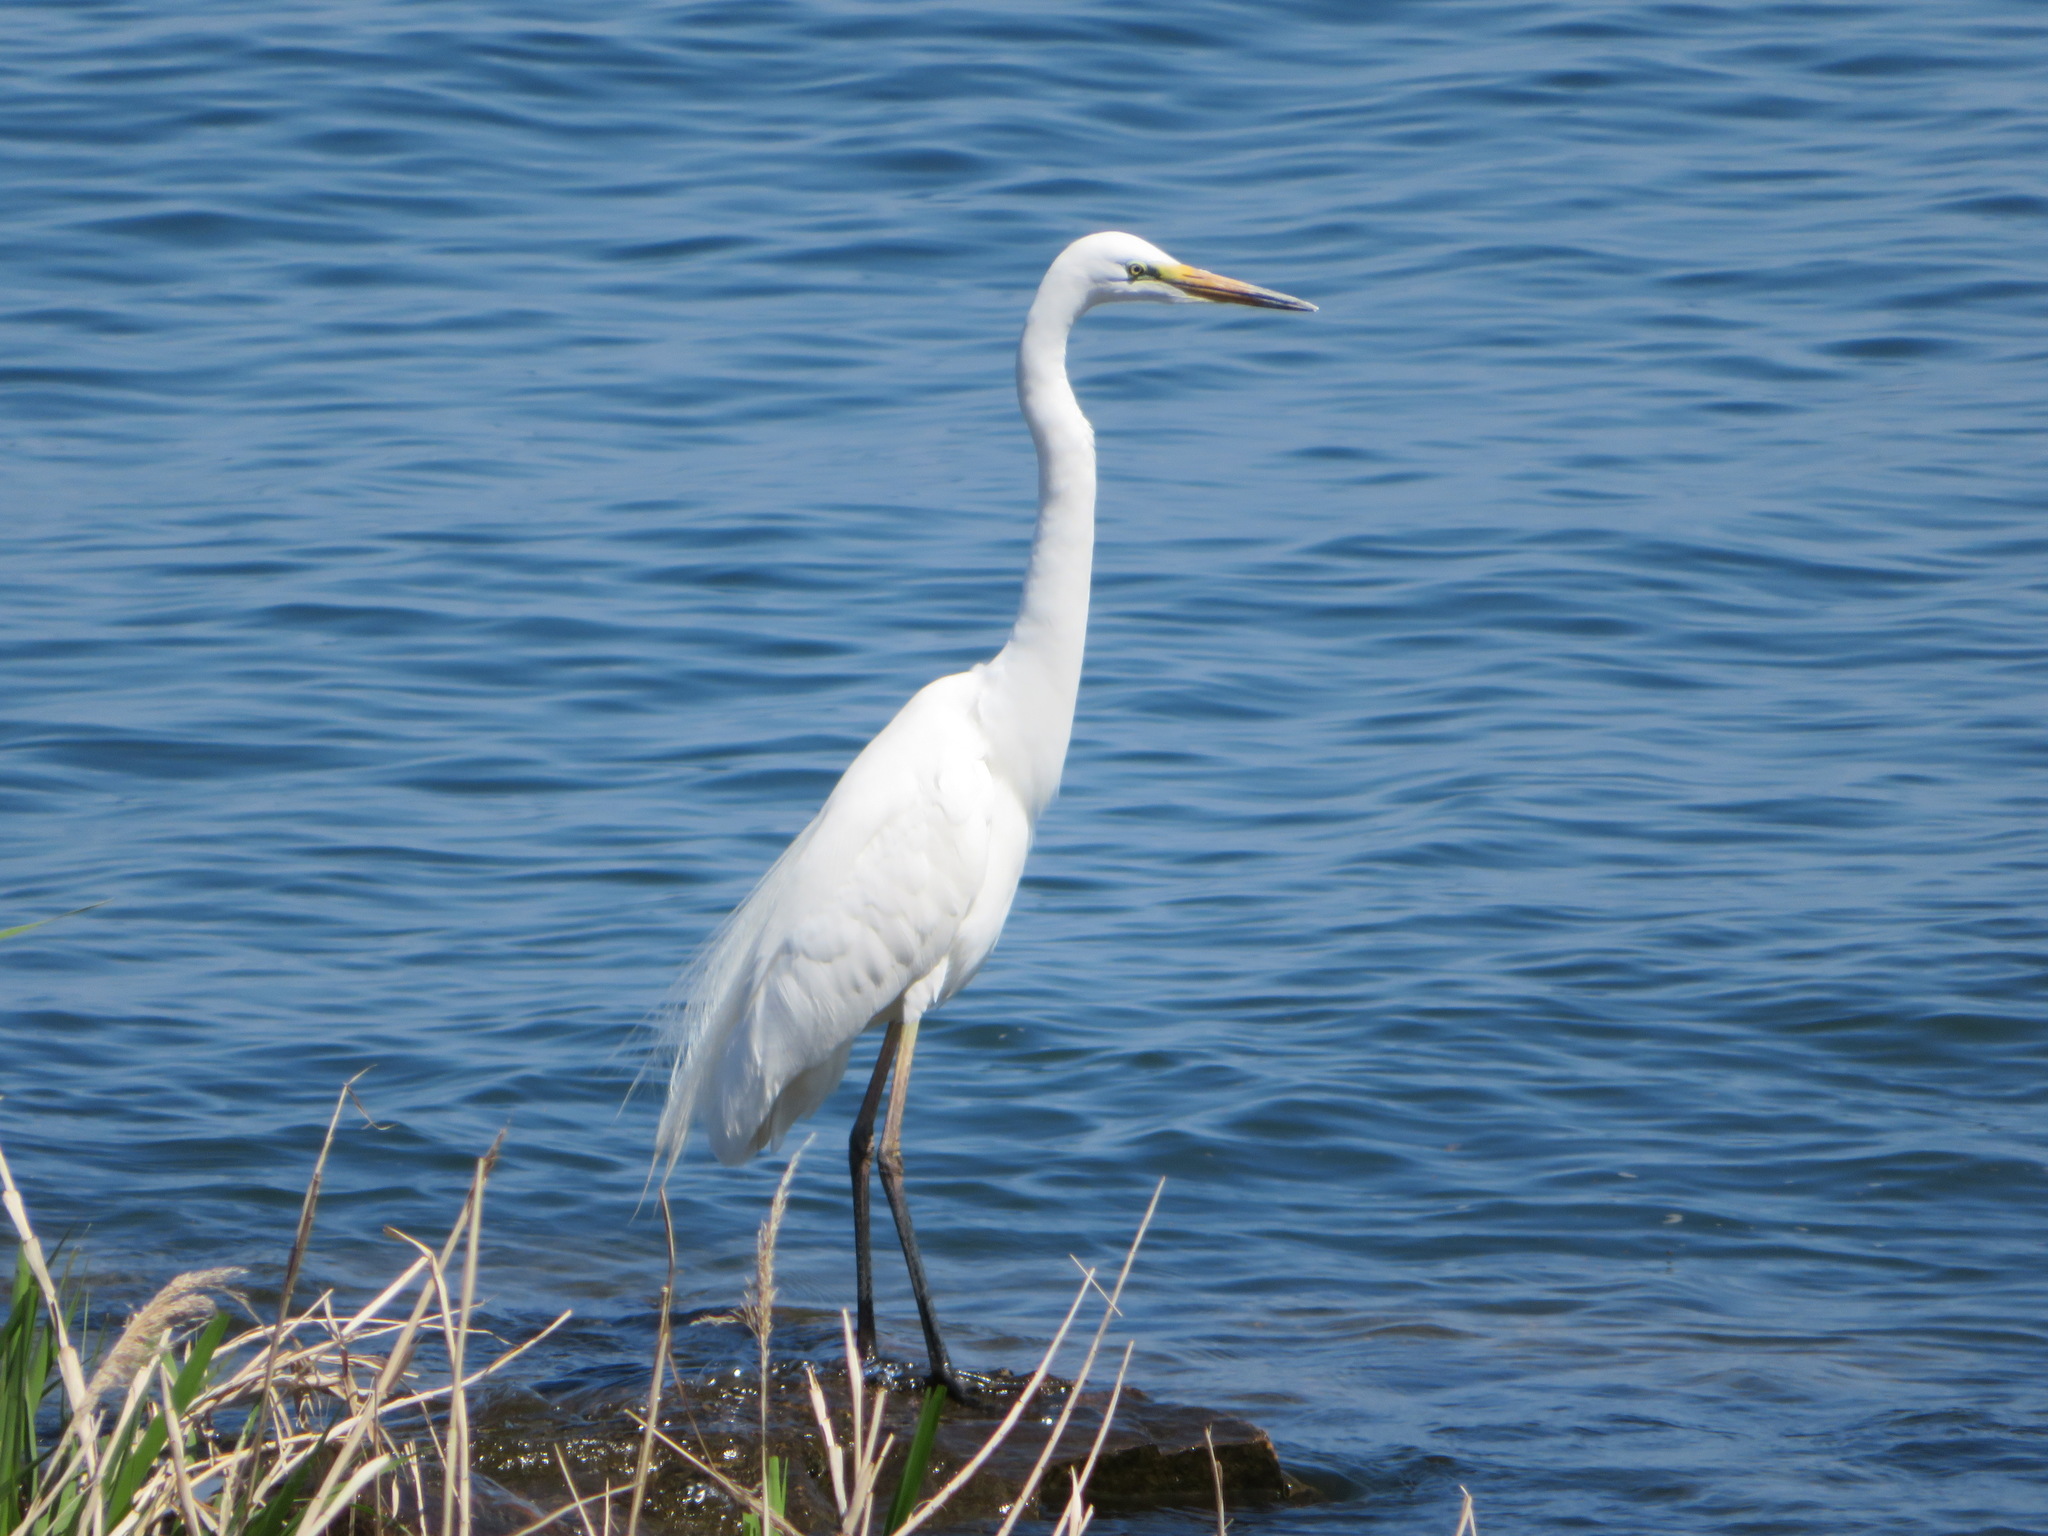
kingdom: Animalia
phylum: Chordata
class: Aves
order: Pelecaniformes
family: Ardeidae
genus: Ardea
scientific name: Ardea modesta
